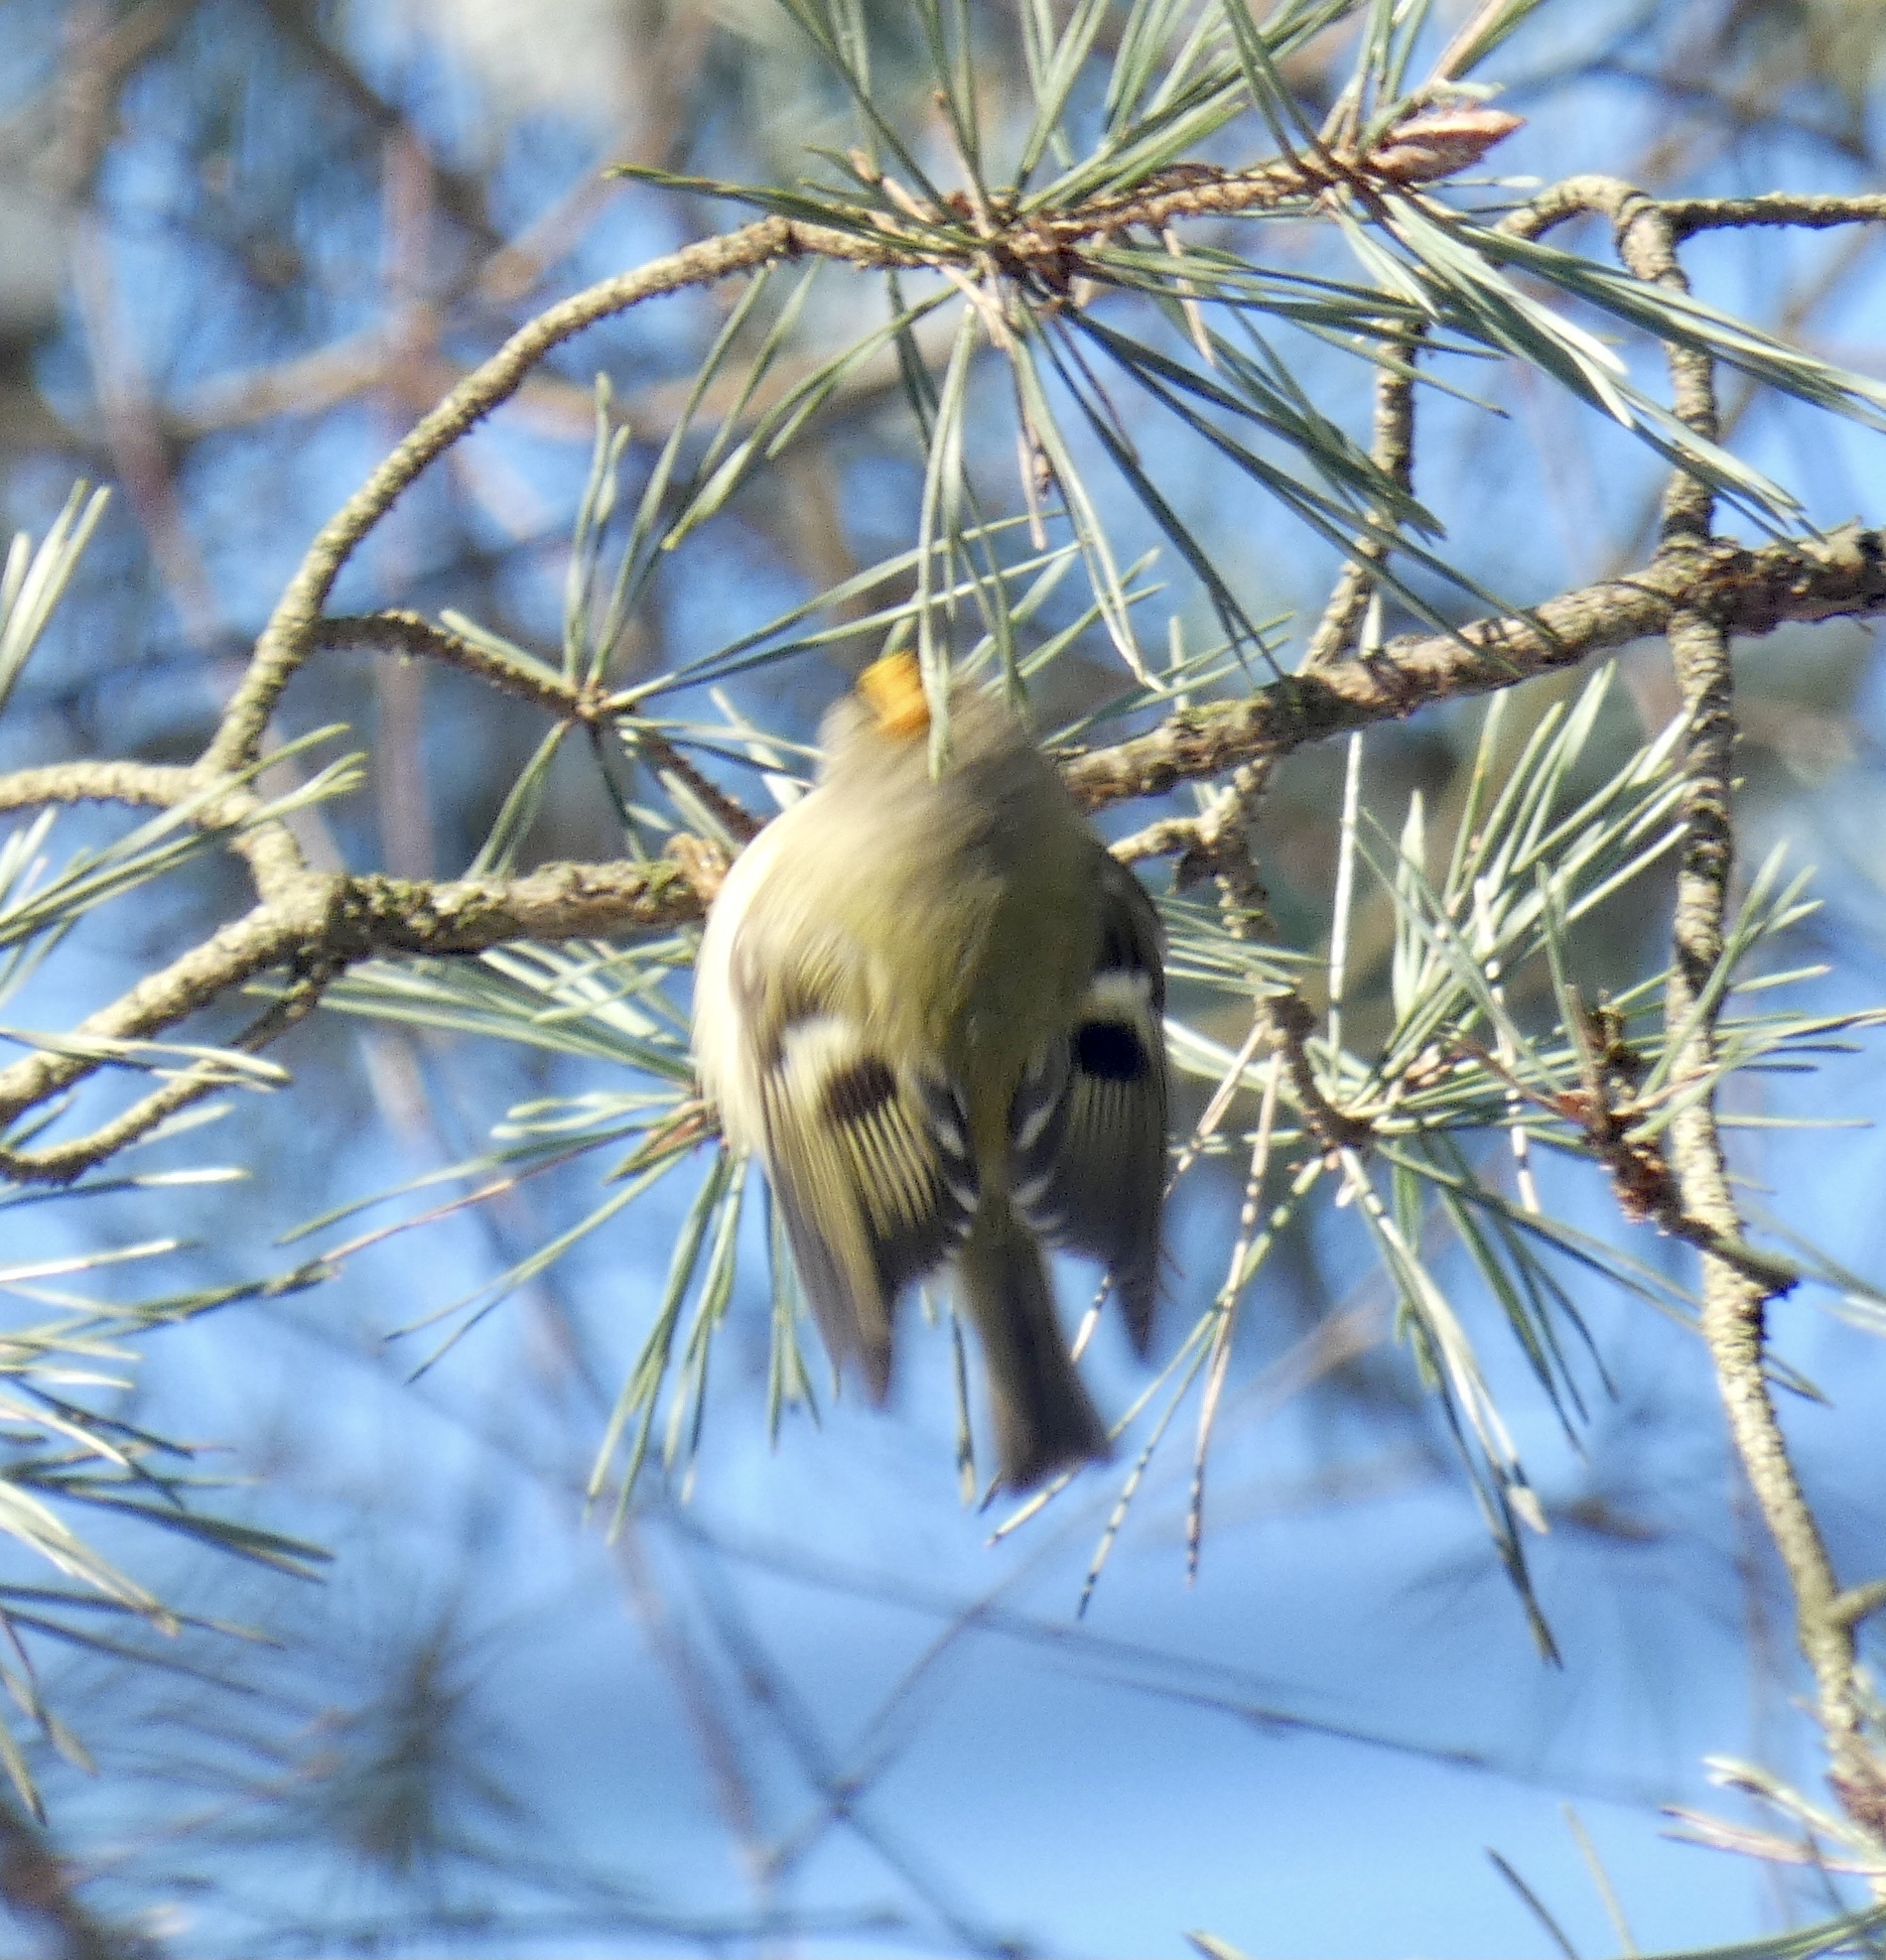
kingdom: Animalia
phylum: Chordata
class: Aves
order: Passeriformes
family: Regulidae
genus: Regulus
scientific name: Regulus regulus
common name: Goldcrest
